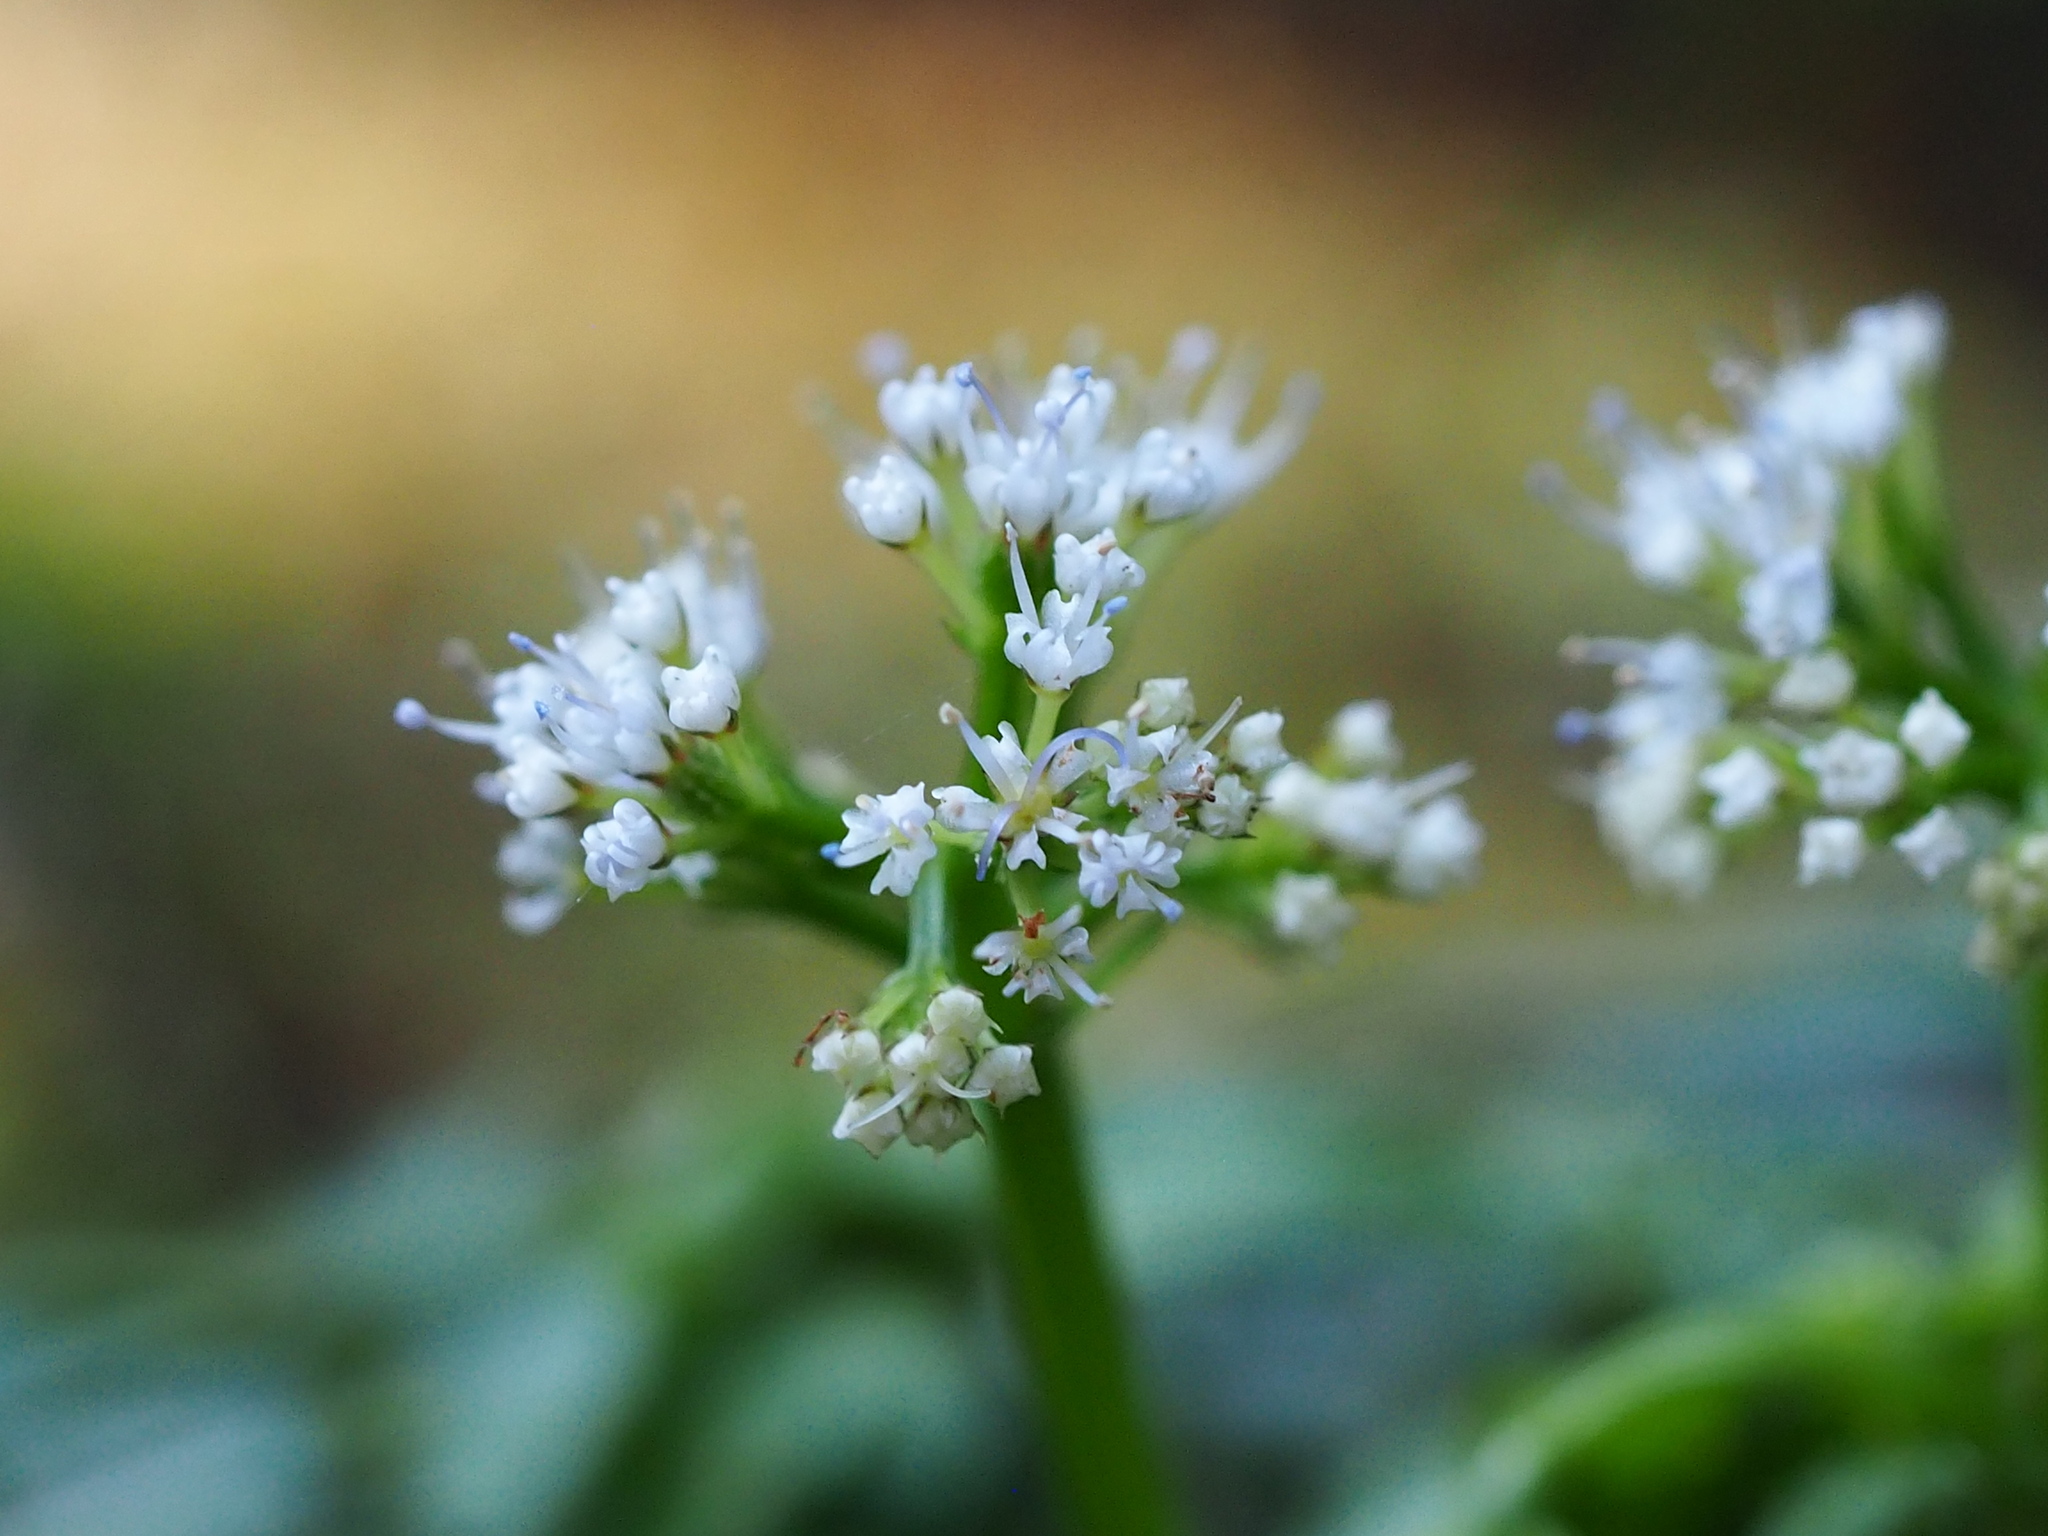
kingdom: Plantae
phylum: Tracheophyta
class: Magnoliopsida
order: Apiales
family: Apiaceae
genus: Sanicula
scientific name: Sanicula lamelligera
